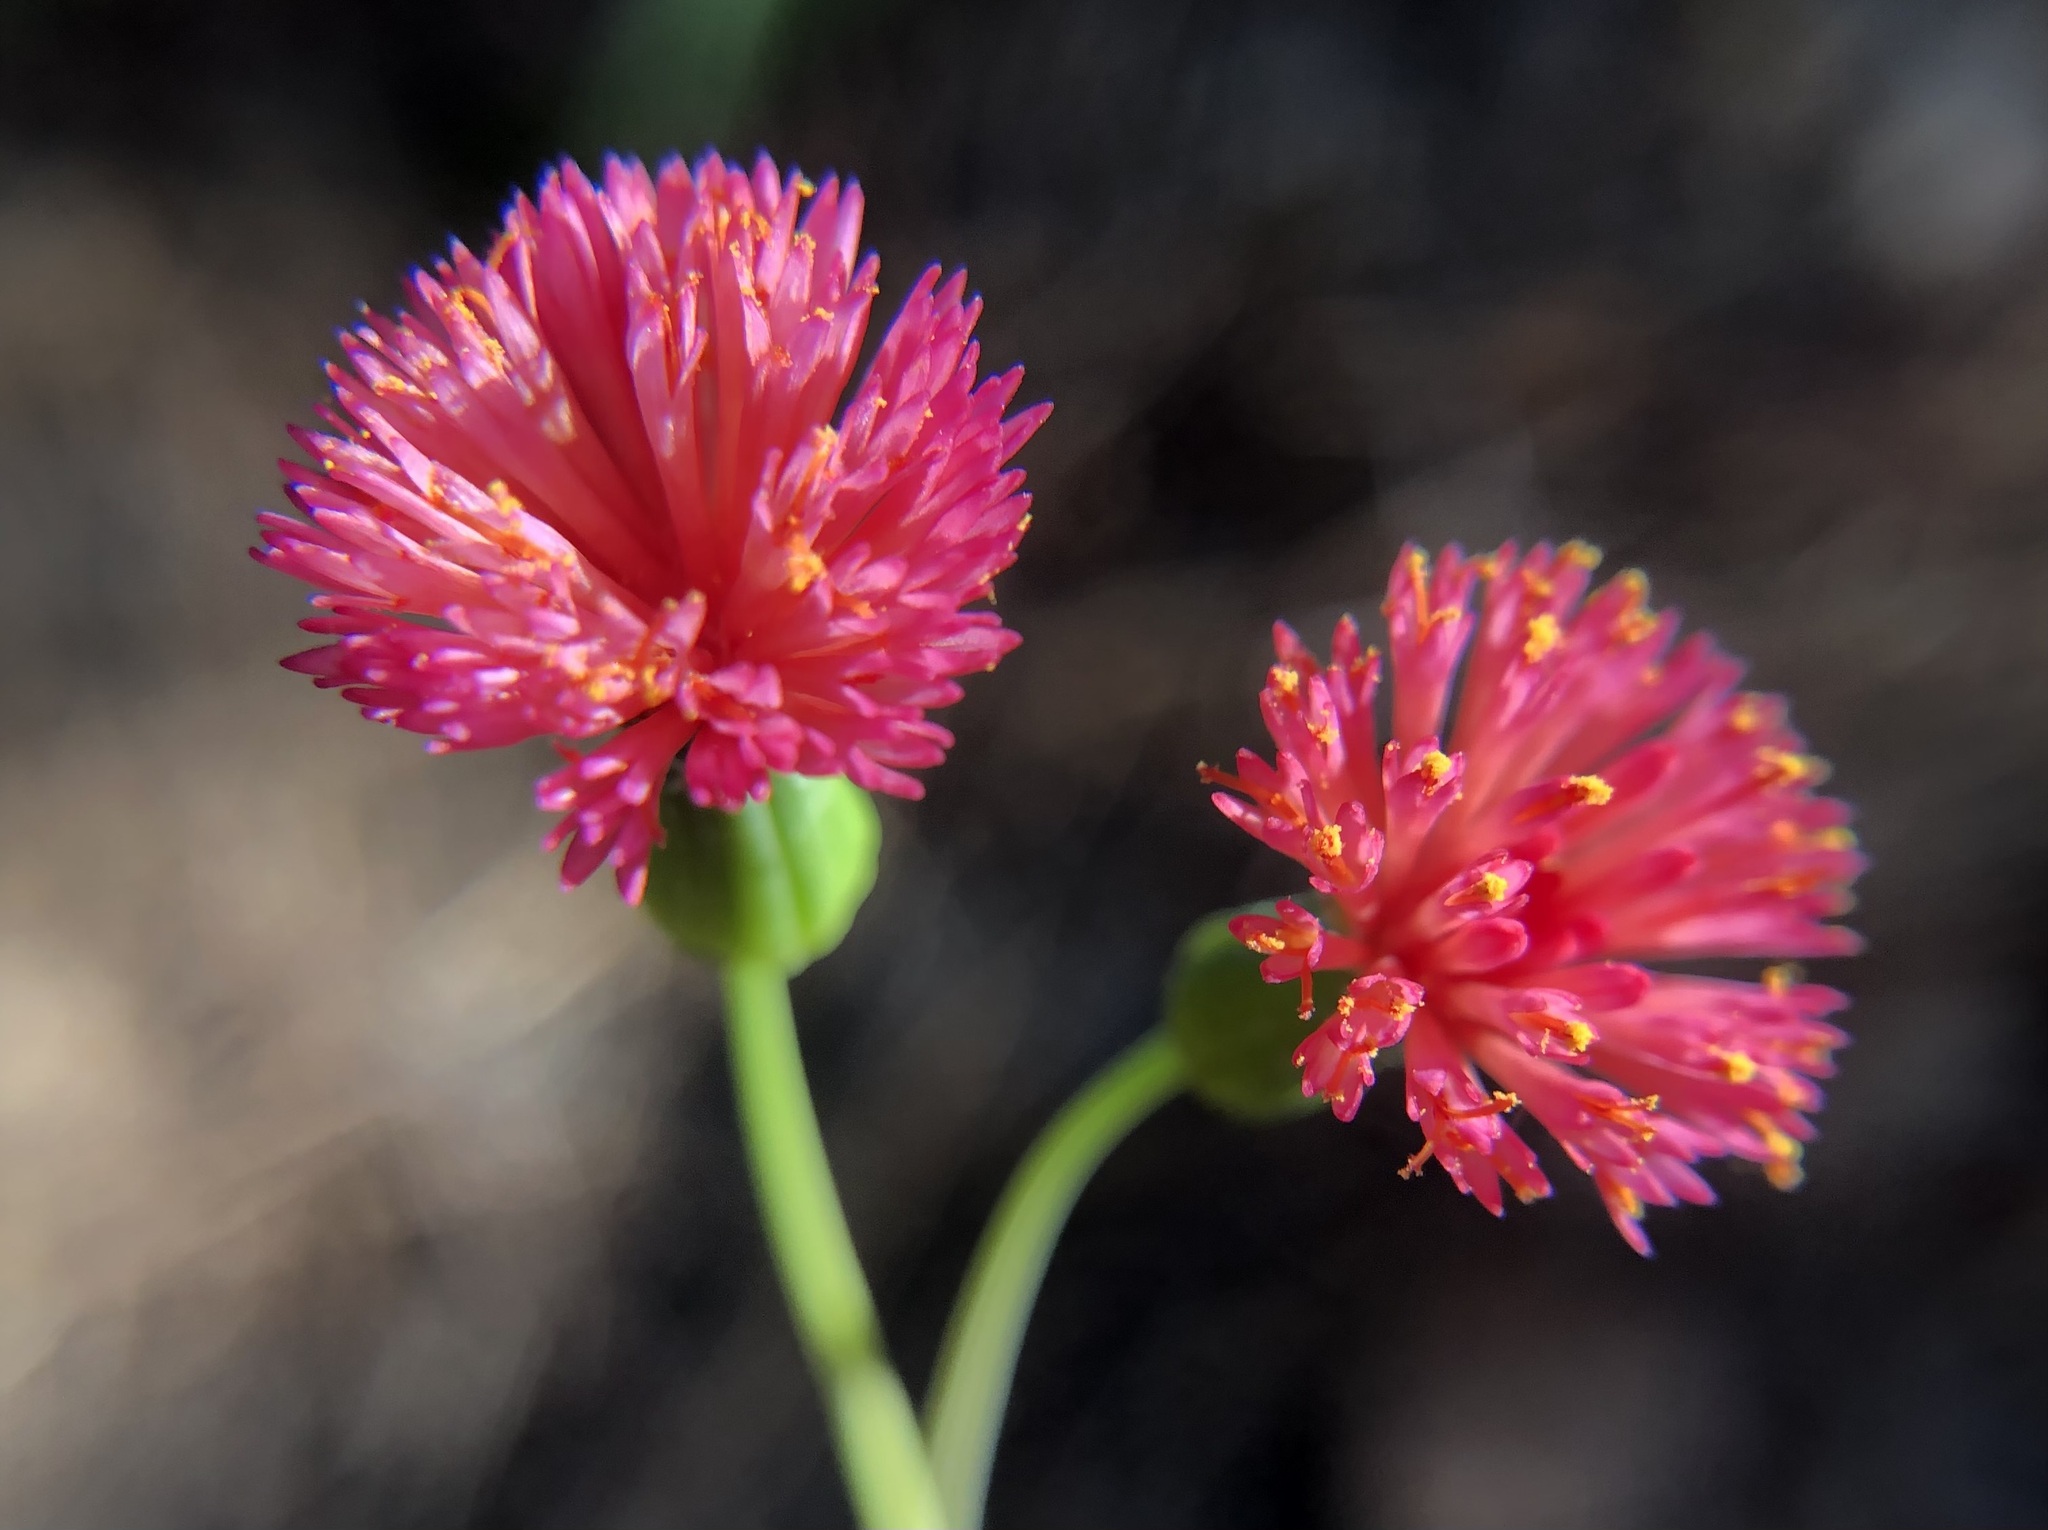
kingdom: Plantae
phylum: Tracheophyta
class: Magnoliopsida
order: Asterales
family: Asteraceae
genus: Emilia
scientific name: Emilia fosbergii
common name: Florida tasselflower
